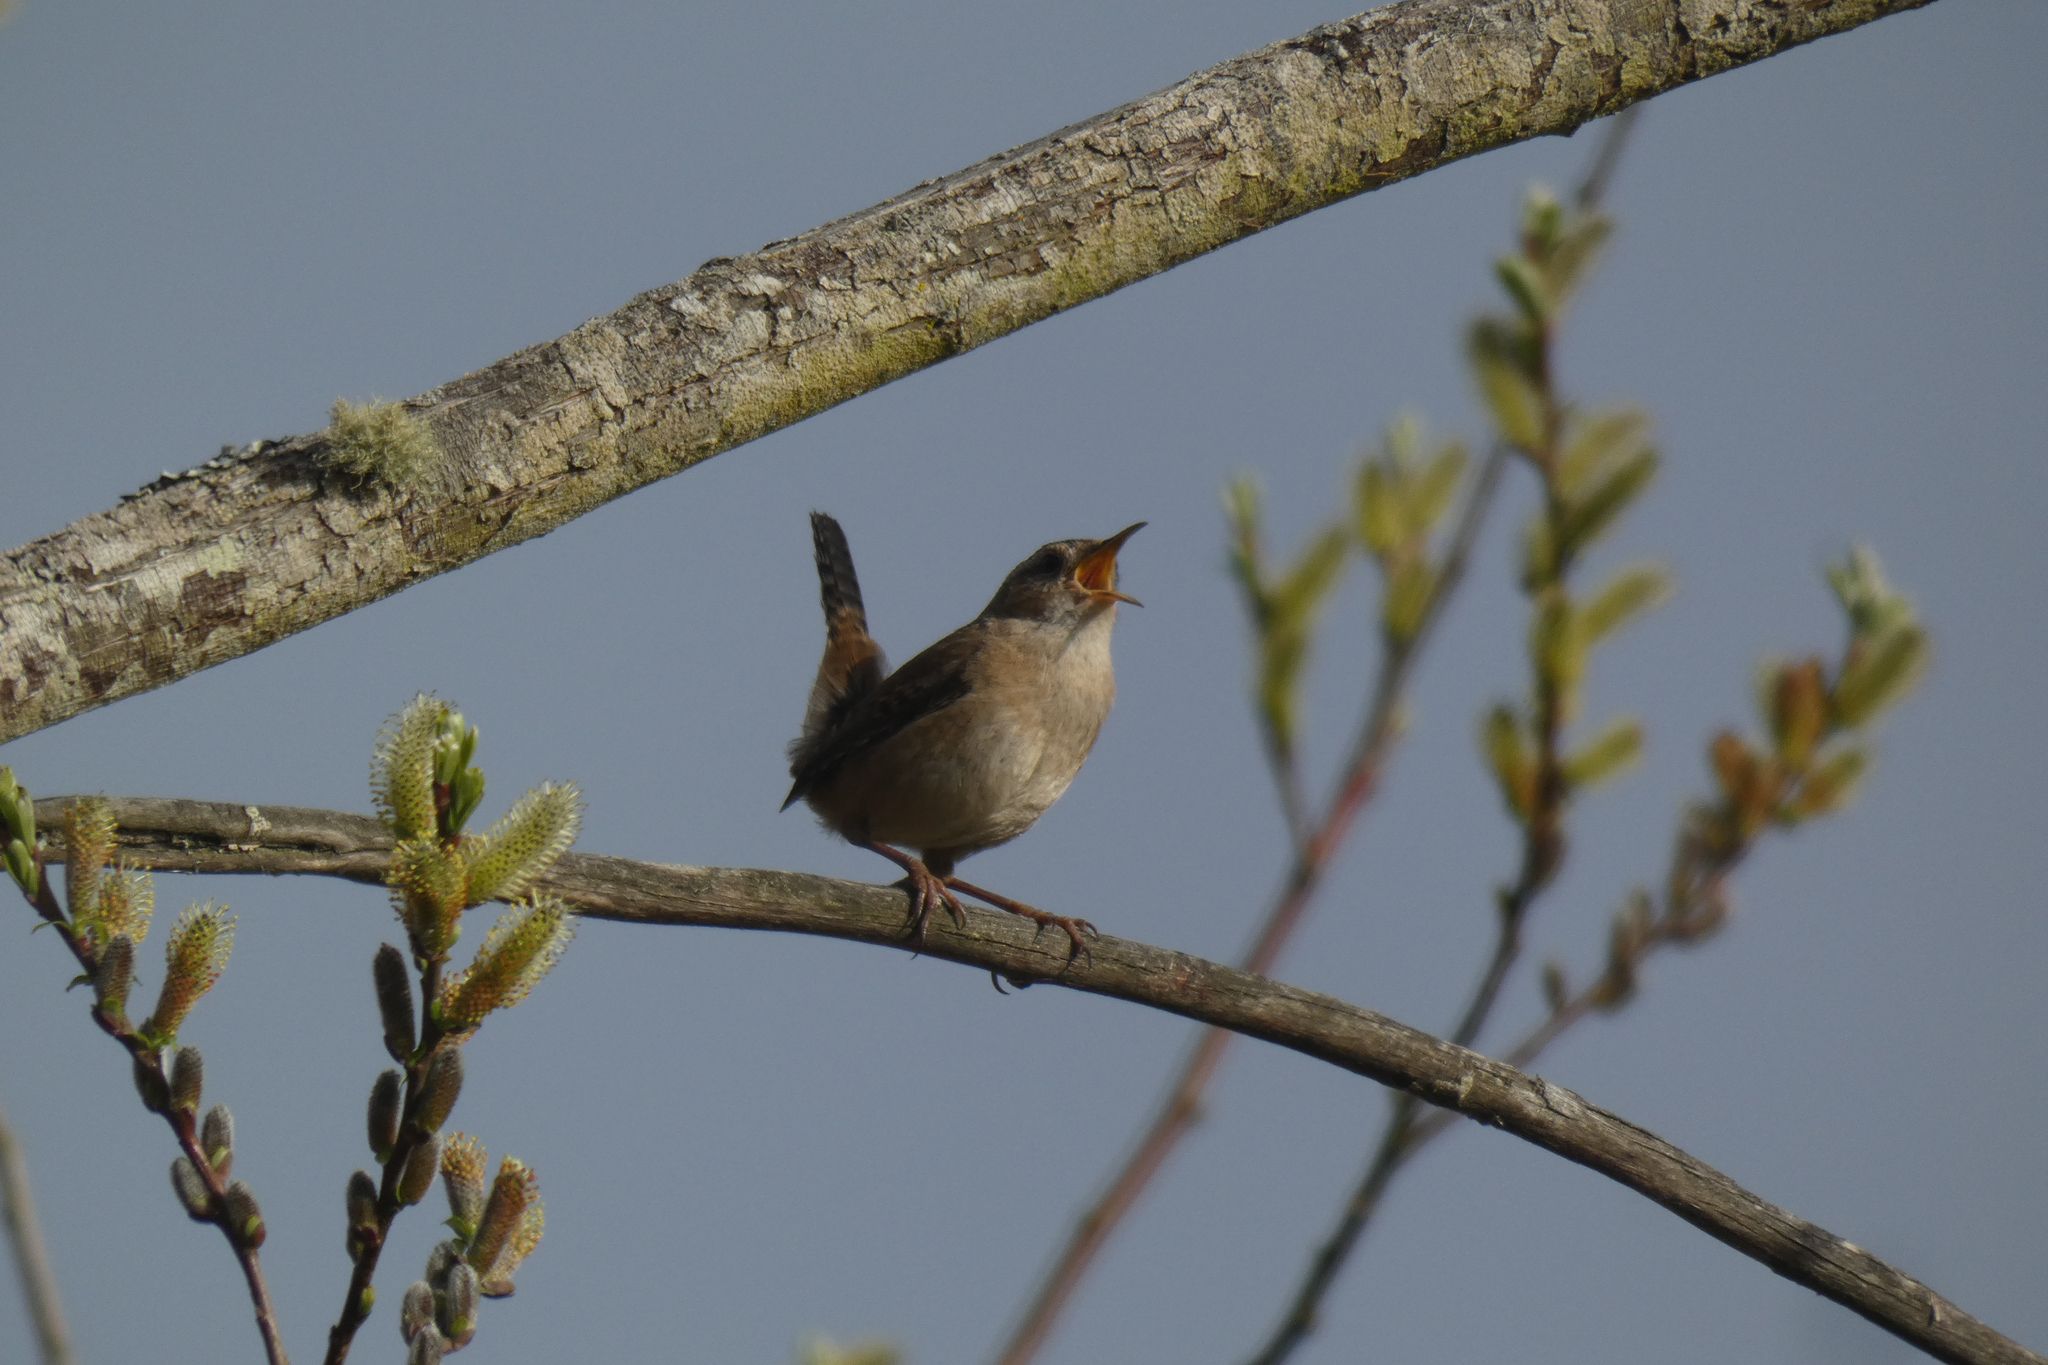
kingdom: Animalia
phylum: Chordata
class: Aves
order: Passeriformes
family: Troglodytidae
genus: Cistothorus
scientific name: Cistothorus palustris
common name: Marsh wren
